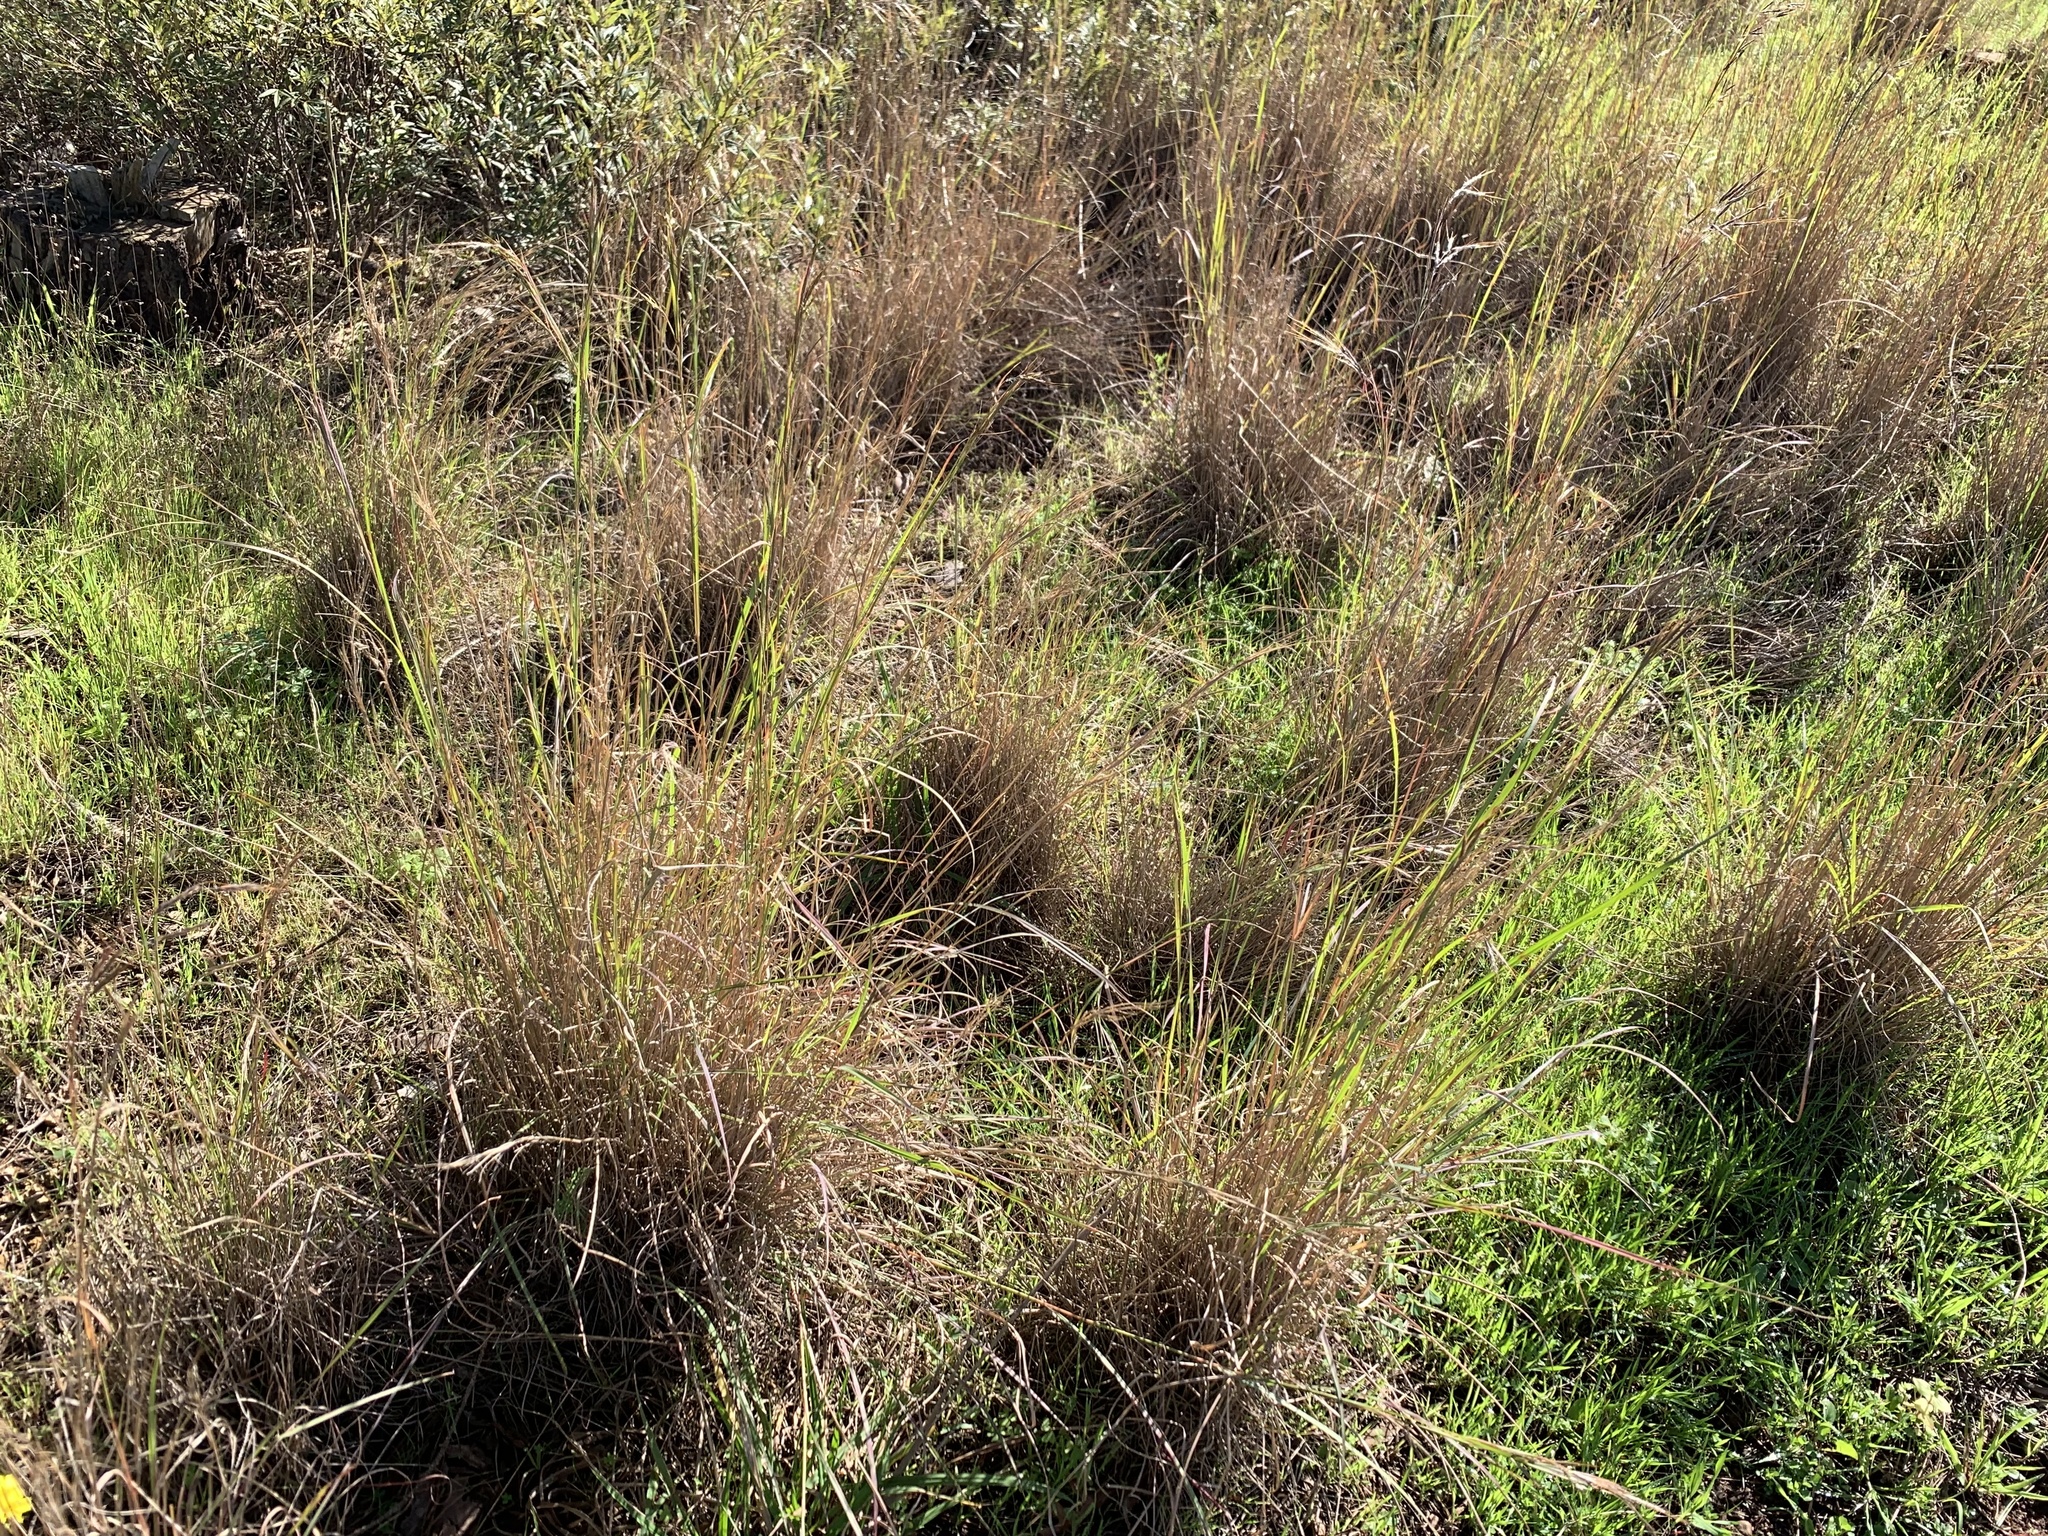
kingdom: Plantae
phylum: Tracheophyta
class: Liliopsida
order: Poales
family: Poaceae
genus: Hyparrhenia
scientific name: Hyparrhenia hirta
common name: Thatching grass
